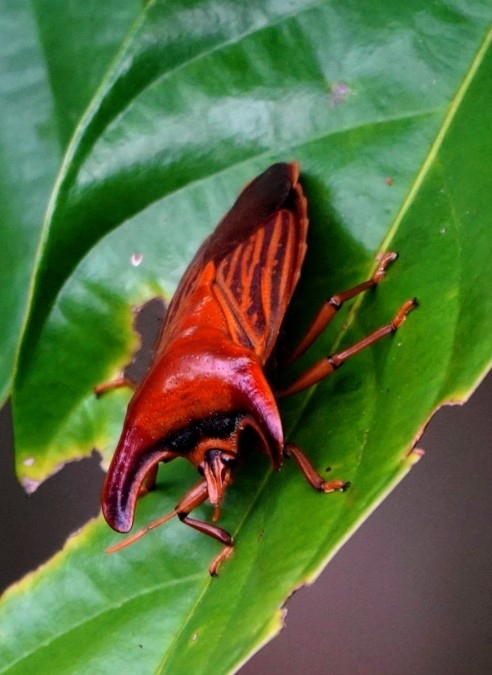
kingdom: Animalia
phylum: Arthropoda
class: Insecta
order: Hemiptera
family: Tessaratomidae
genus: Amissus
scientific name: Amissus nitidus
